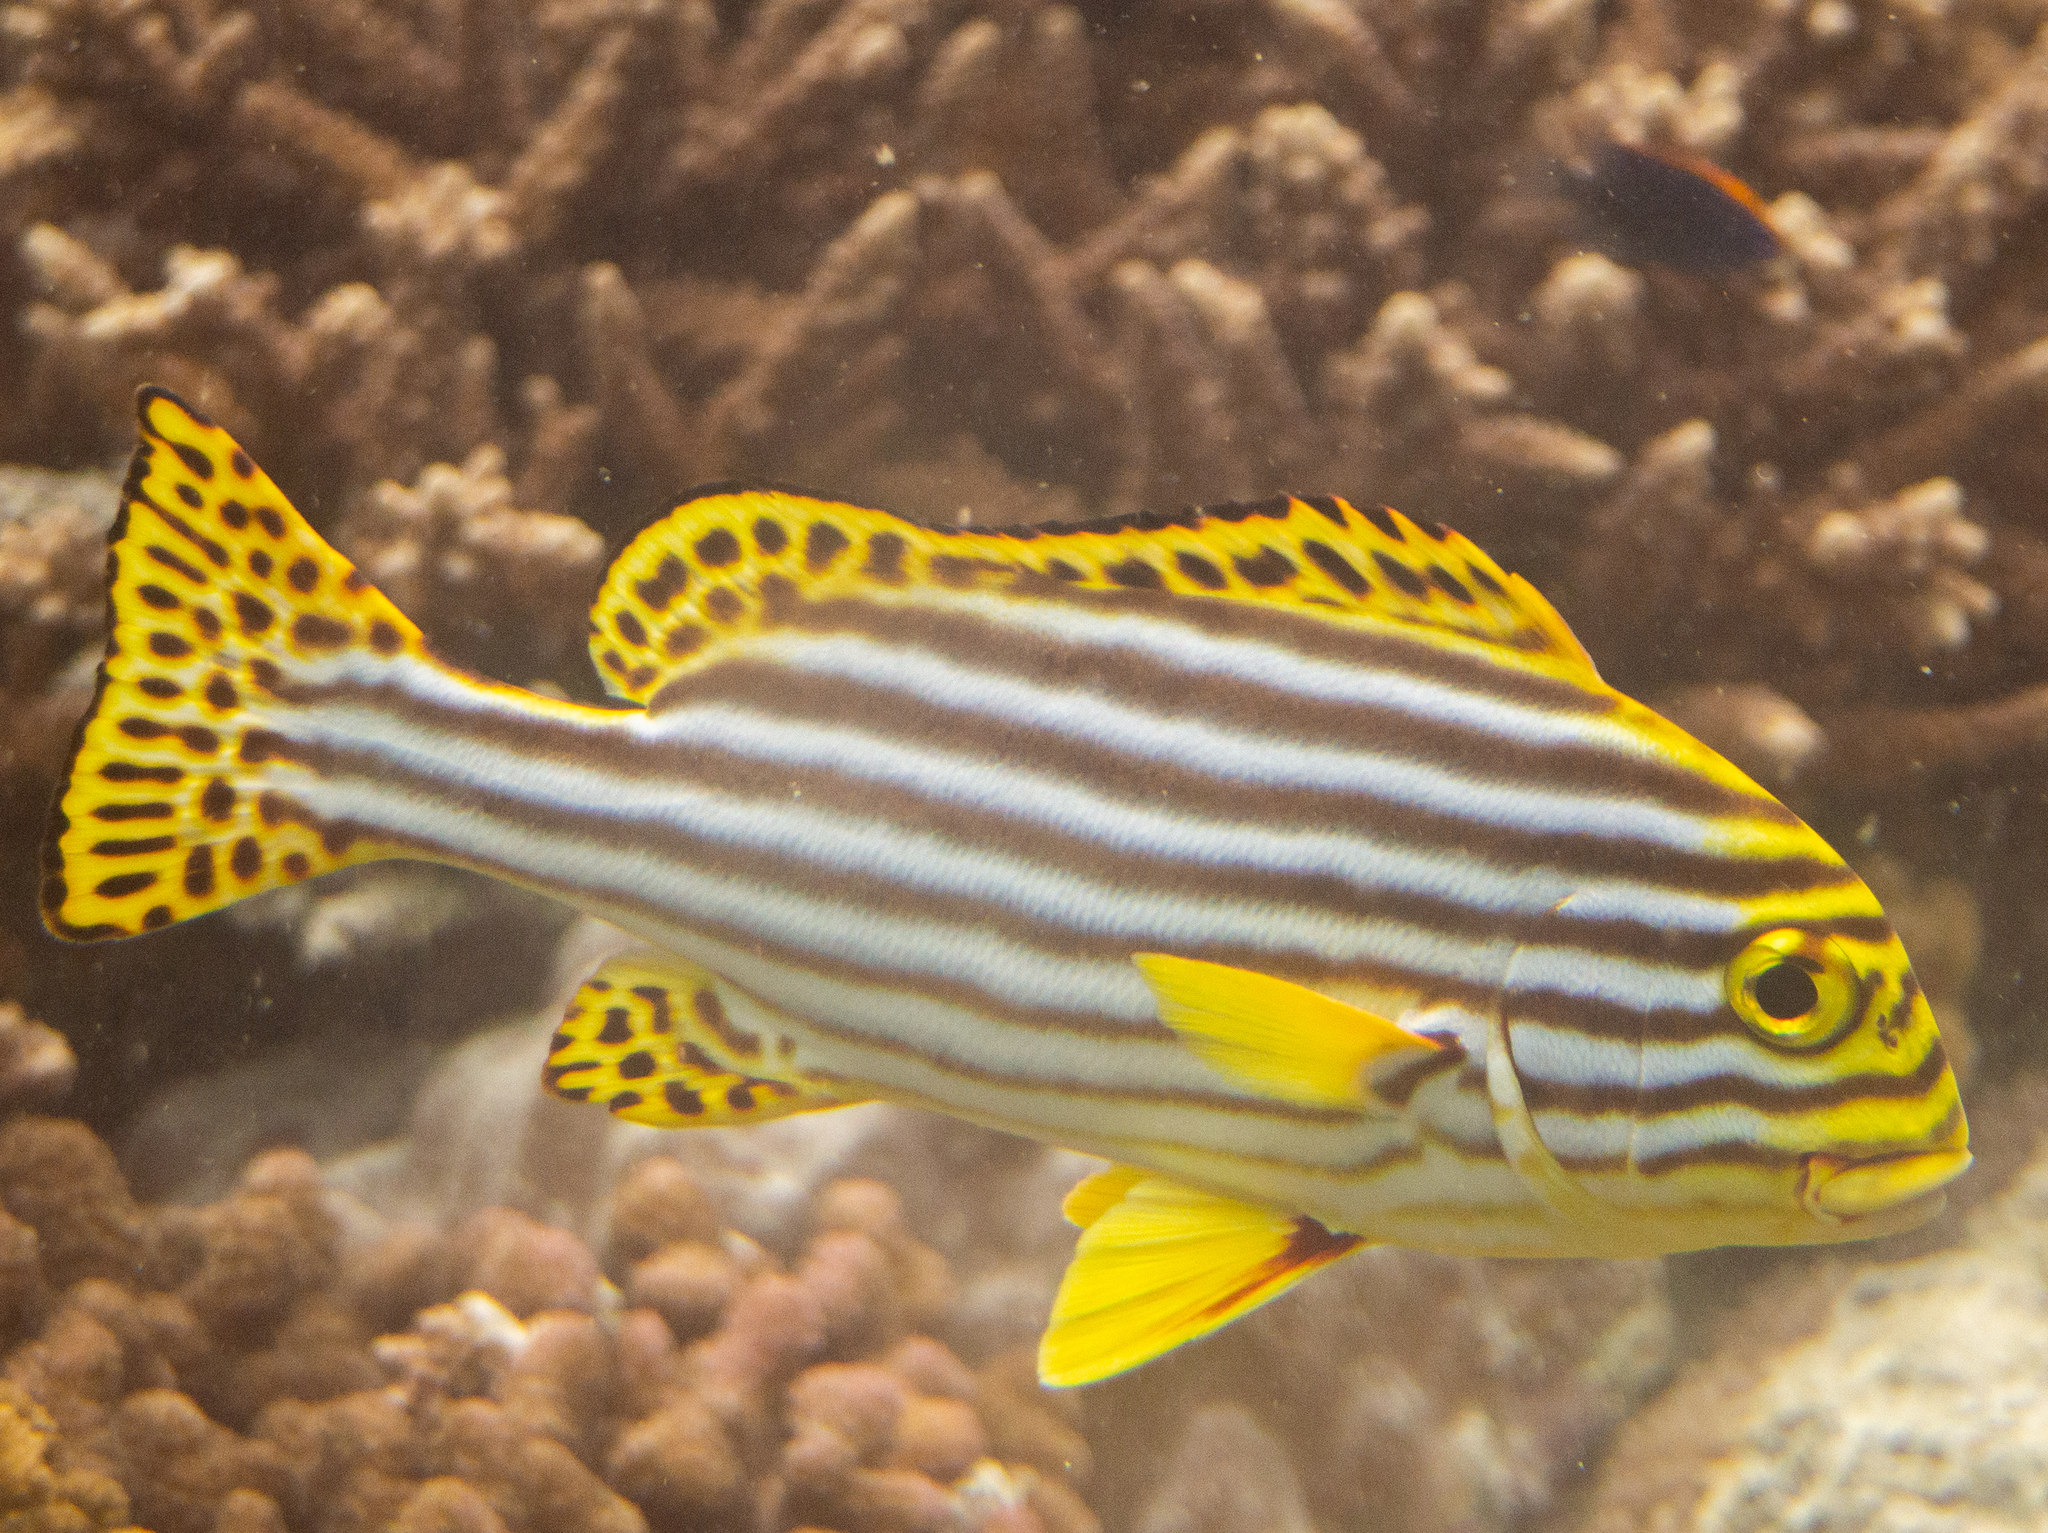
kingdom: Animalia
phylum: Chordata
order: Perciformes
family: Haemulidae
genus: Plectorhinchus
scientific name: Plectorhinchus vittatus
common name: Oriental sweetlips
